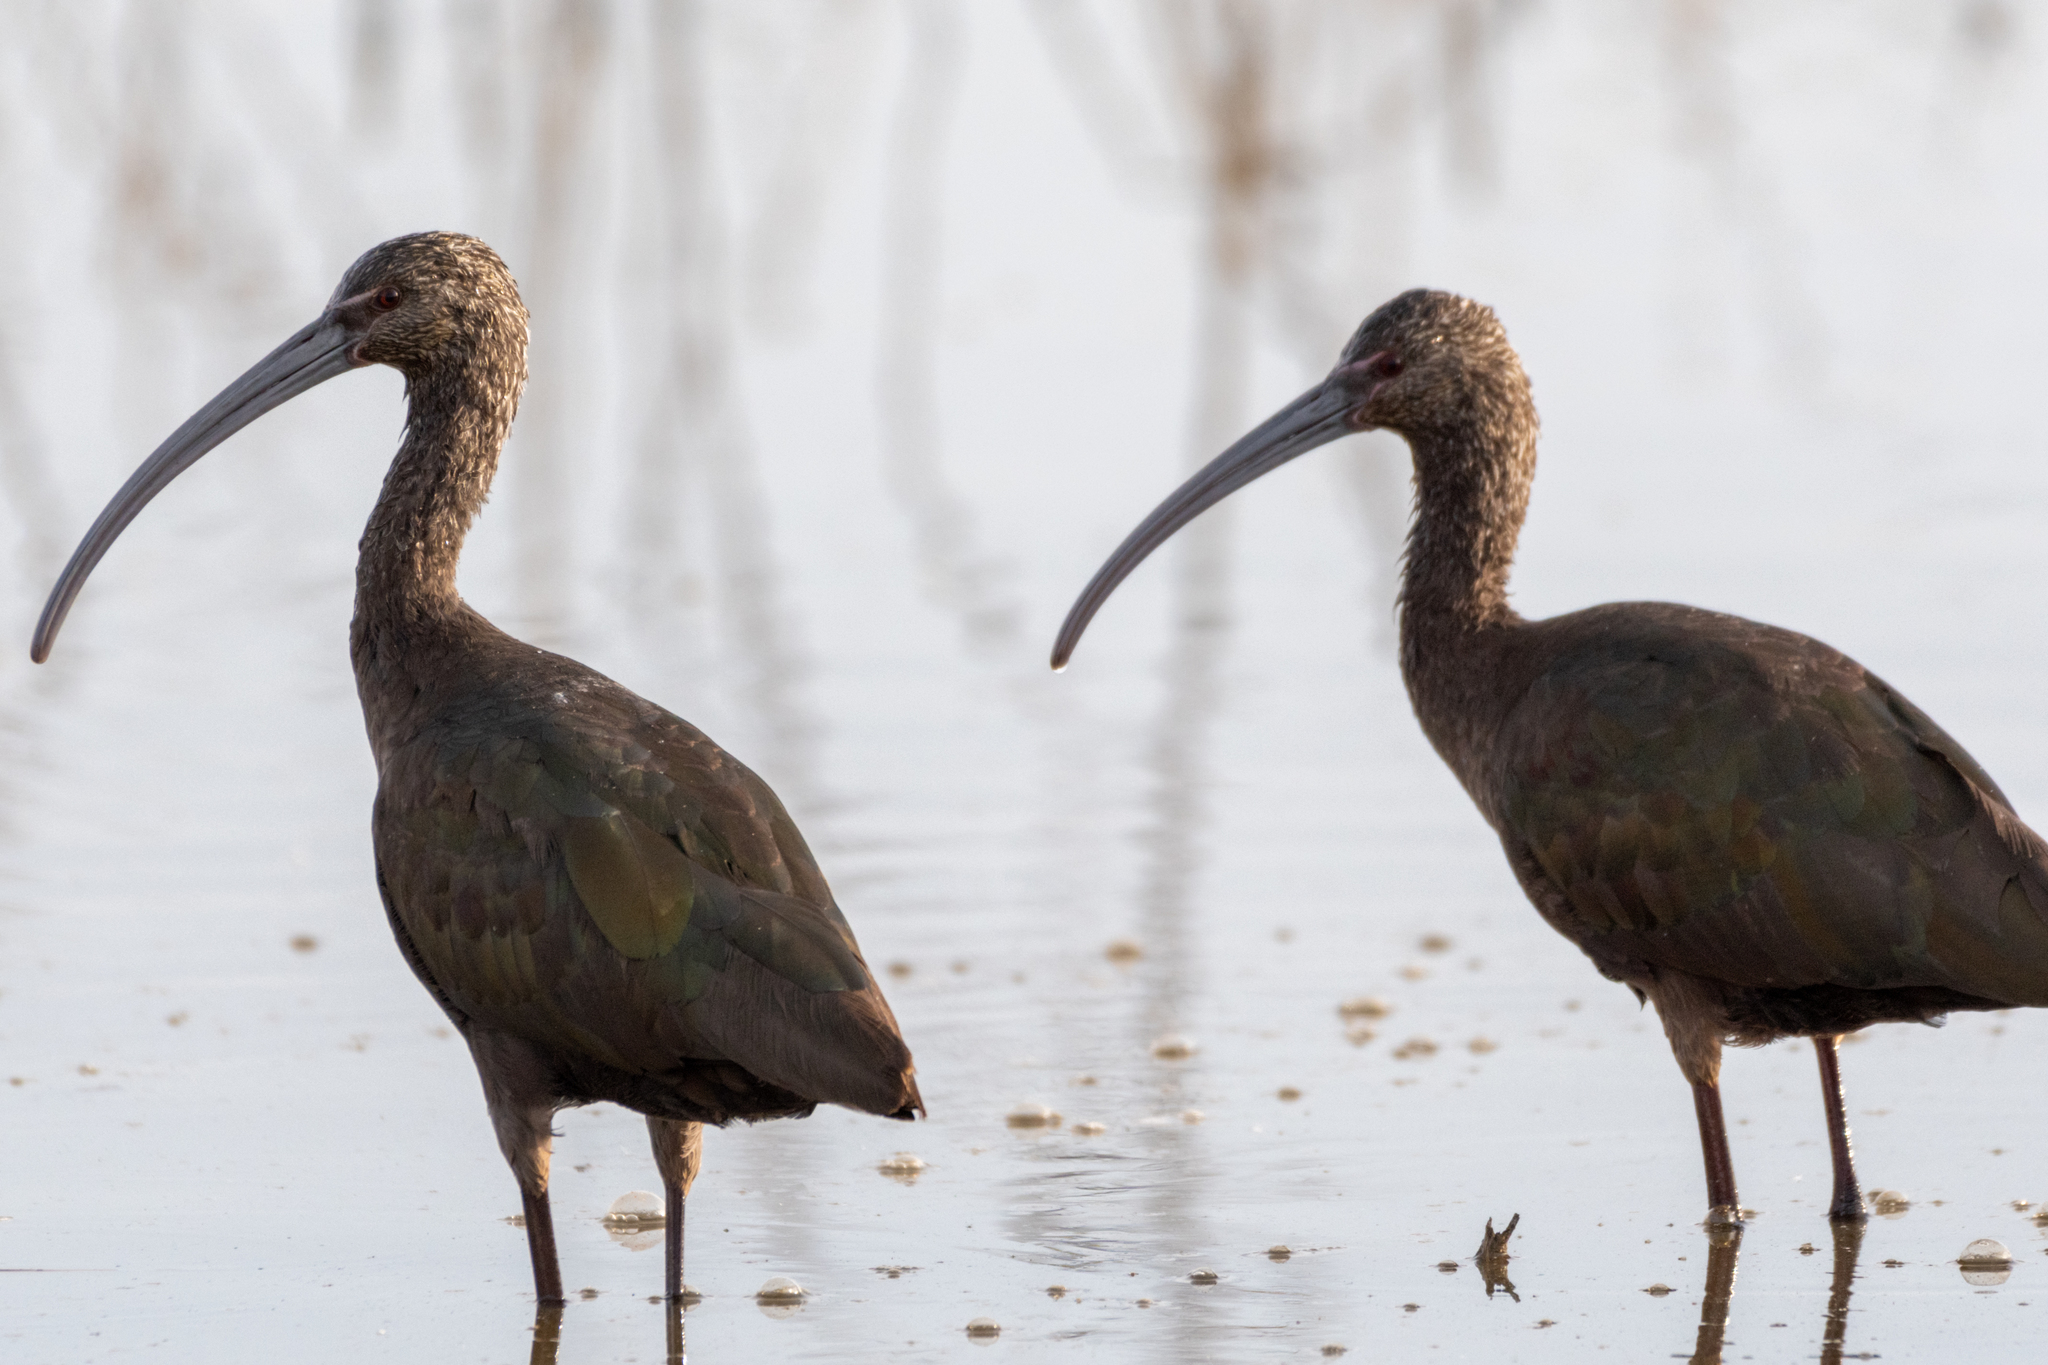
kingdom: Animalia
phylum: Chordata
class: Aves
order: Pelecaniformes
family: Threskiornithidae
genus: Plegadis
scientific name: Plegadis chihi
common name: White-faced ibis
